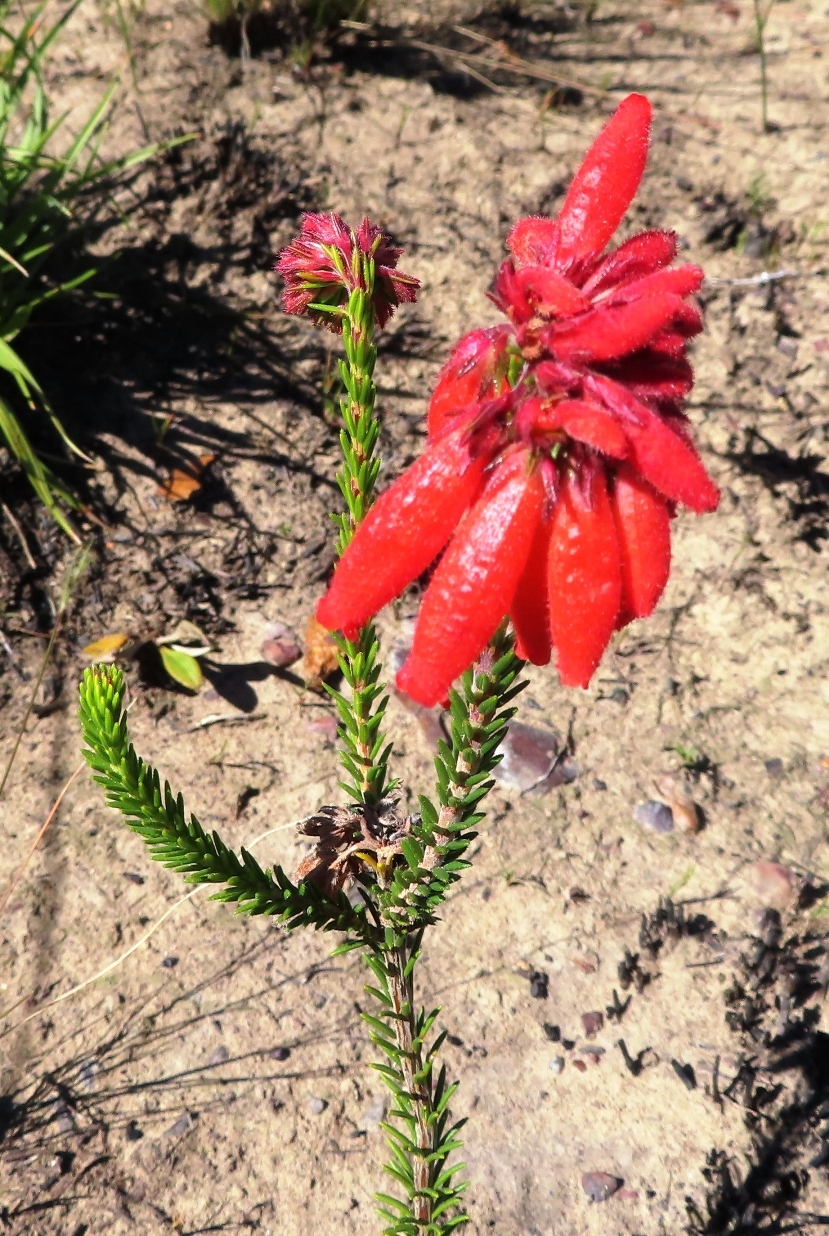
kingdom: Plantae
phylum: Tracheophyta
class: Magnoliopsida
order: Ericales
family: Ericaceae
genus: Erica
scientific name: Erica cerinthoides
